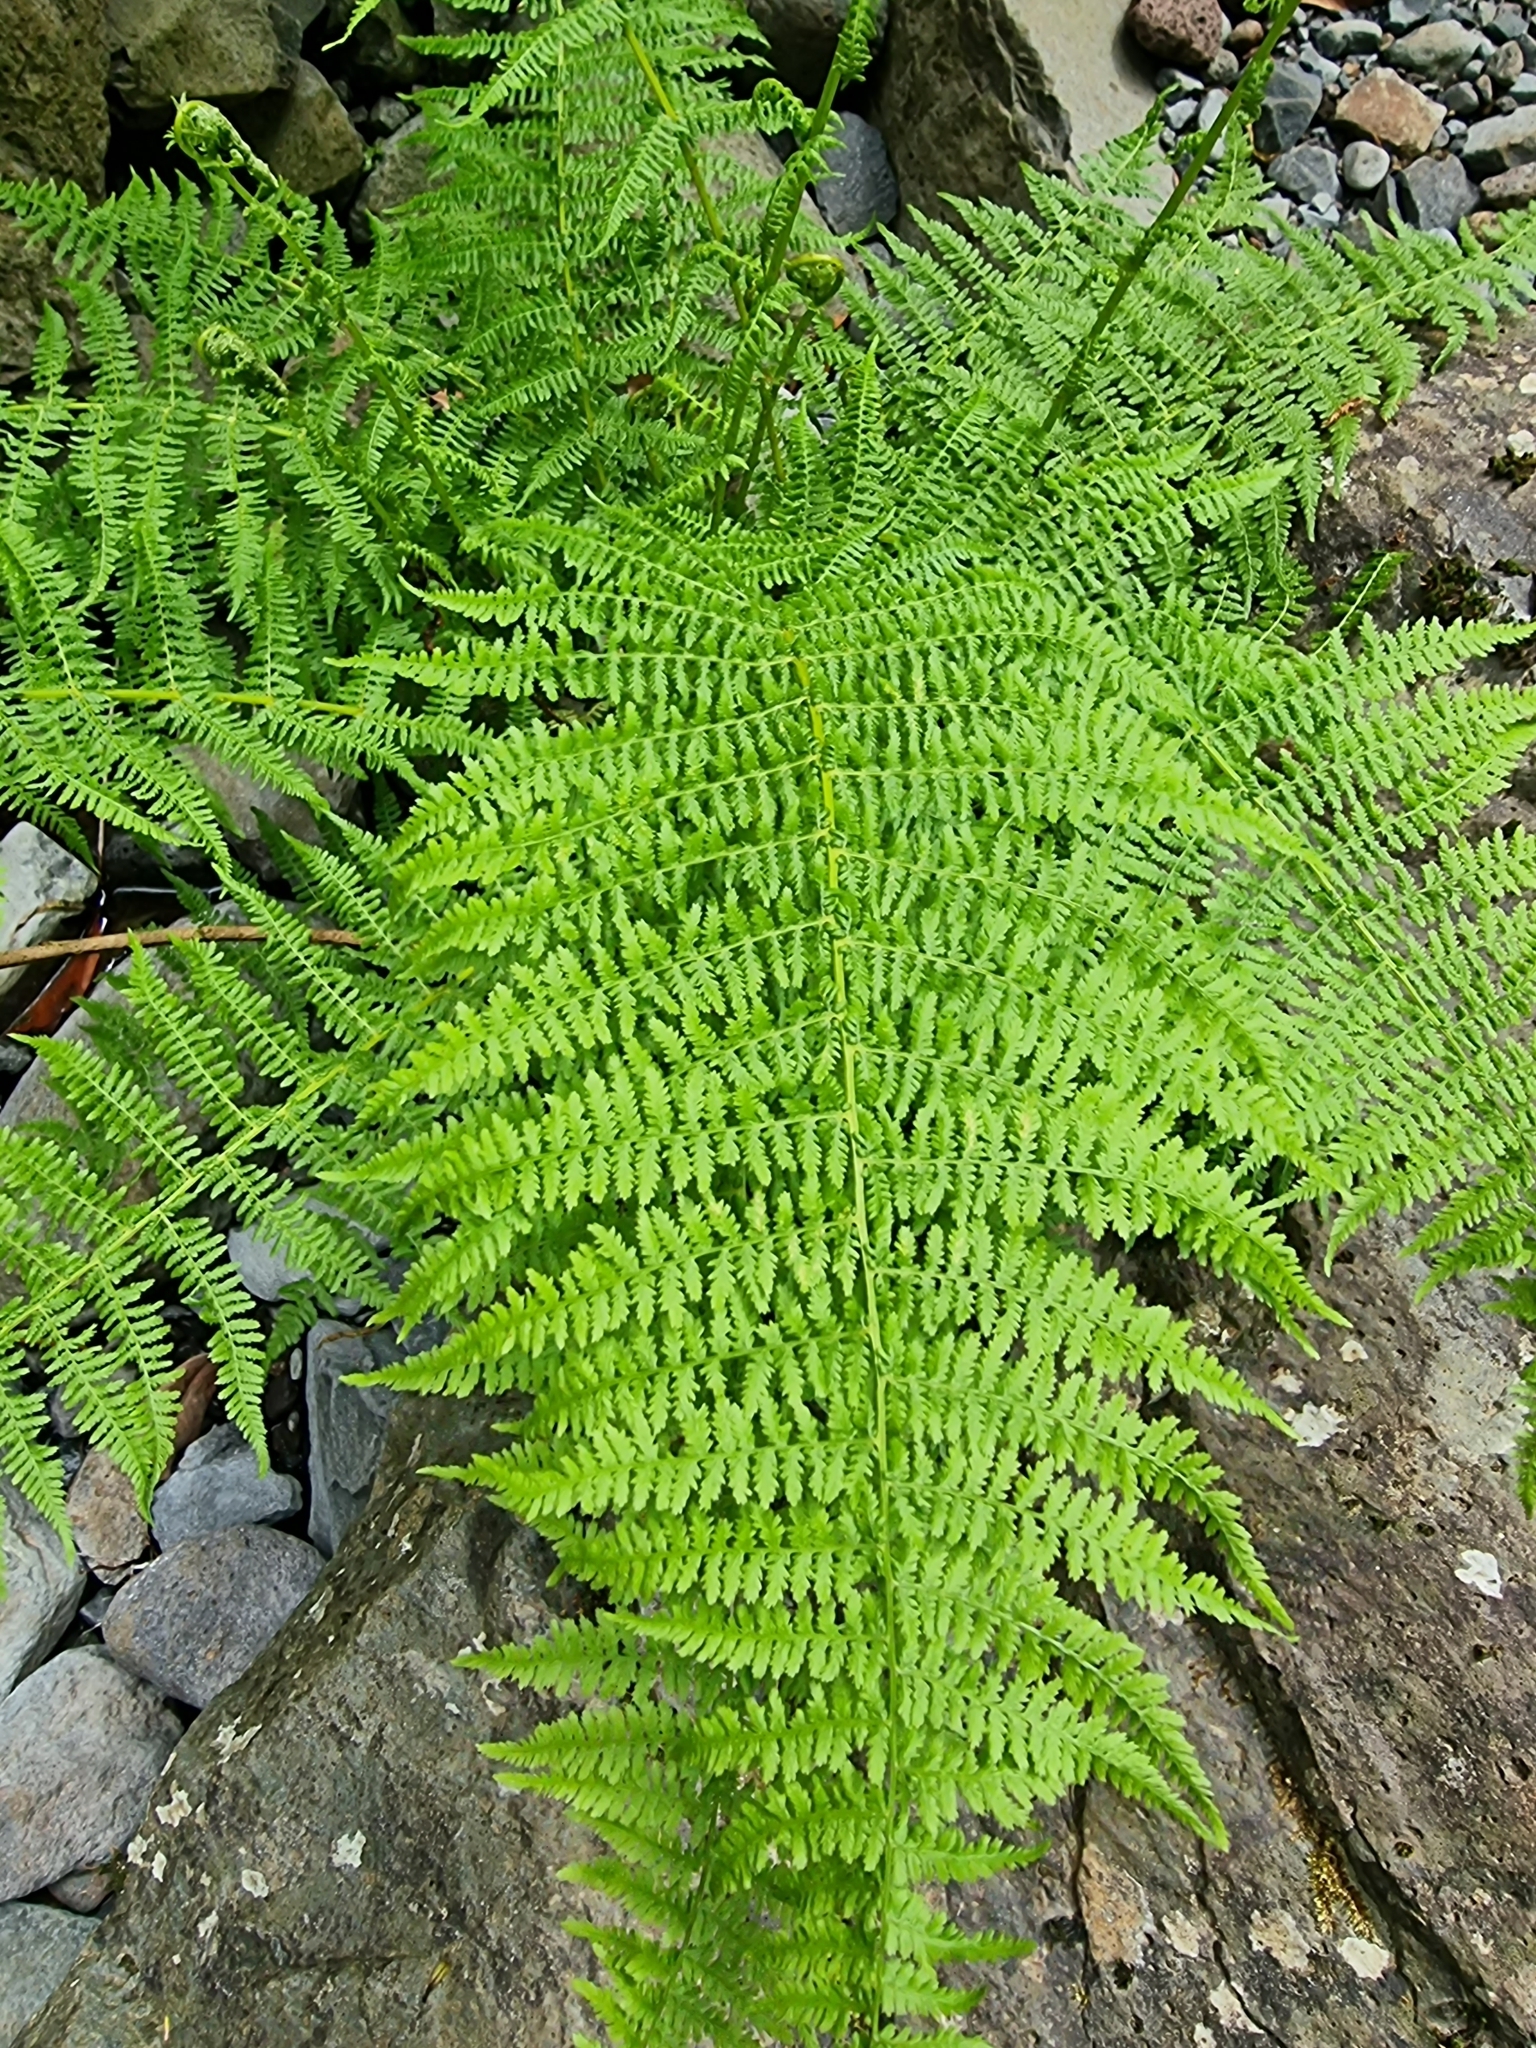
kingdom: Plantae
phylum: Tracheophyta
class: Polypodiopsida
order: Polypodiales
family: Athyriaceae
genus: Athyrium
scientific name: Athyrium filix-femina
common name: Lady fern
